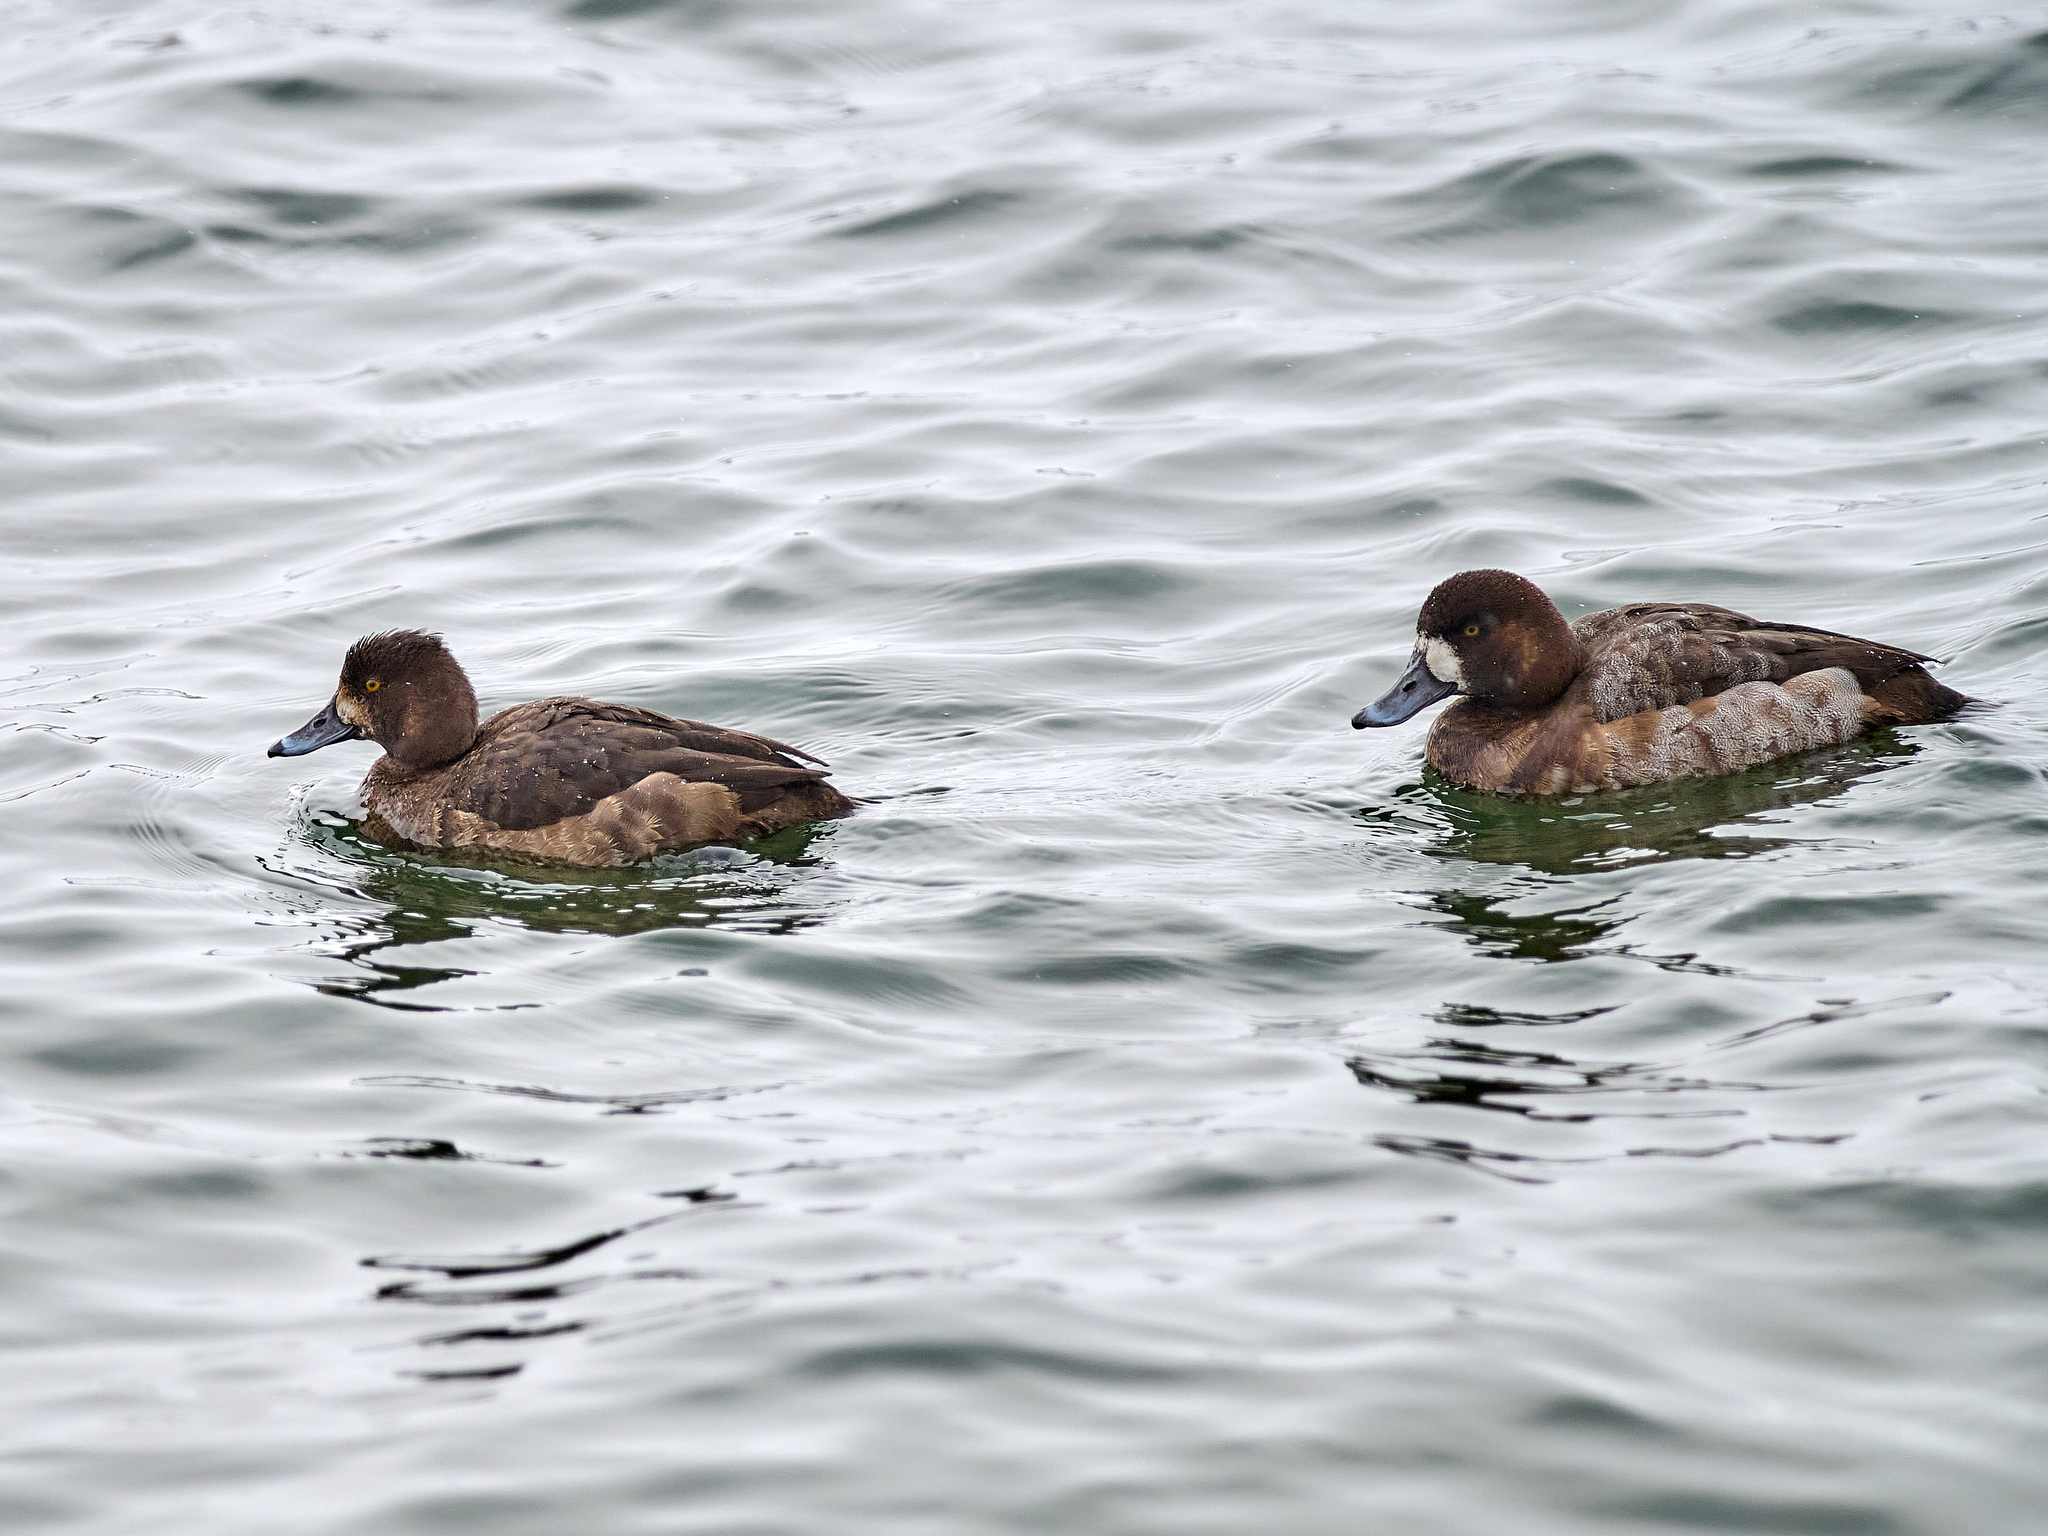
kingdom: Animalia
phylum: Chordata
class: Aves
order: Anseriformes
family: Anatidae
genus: Aythya
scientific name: Aythya marila
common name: Greater scaup
